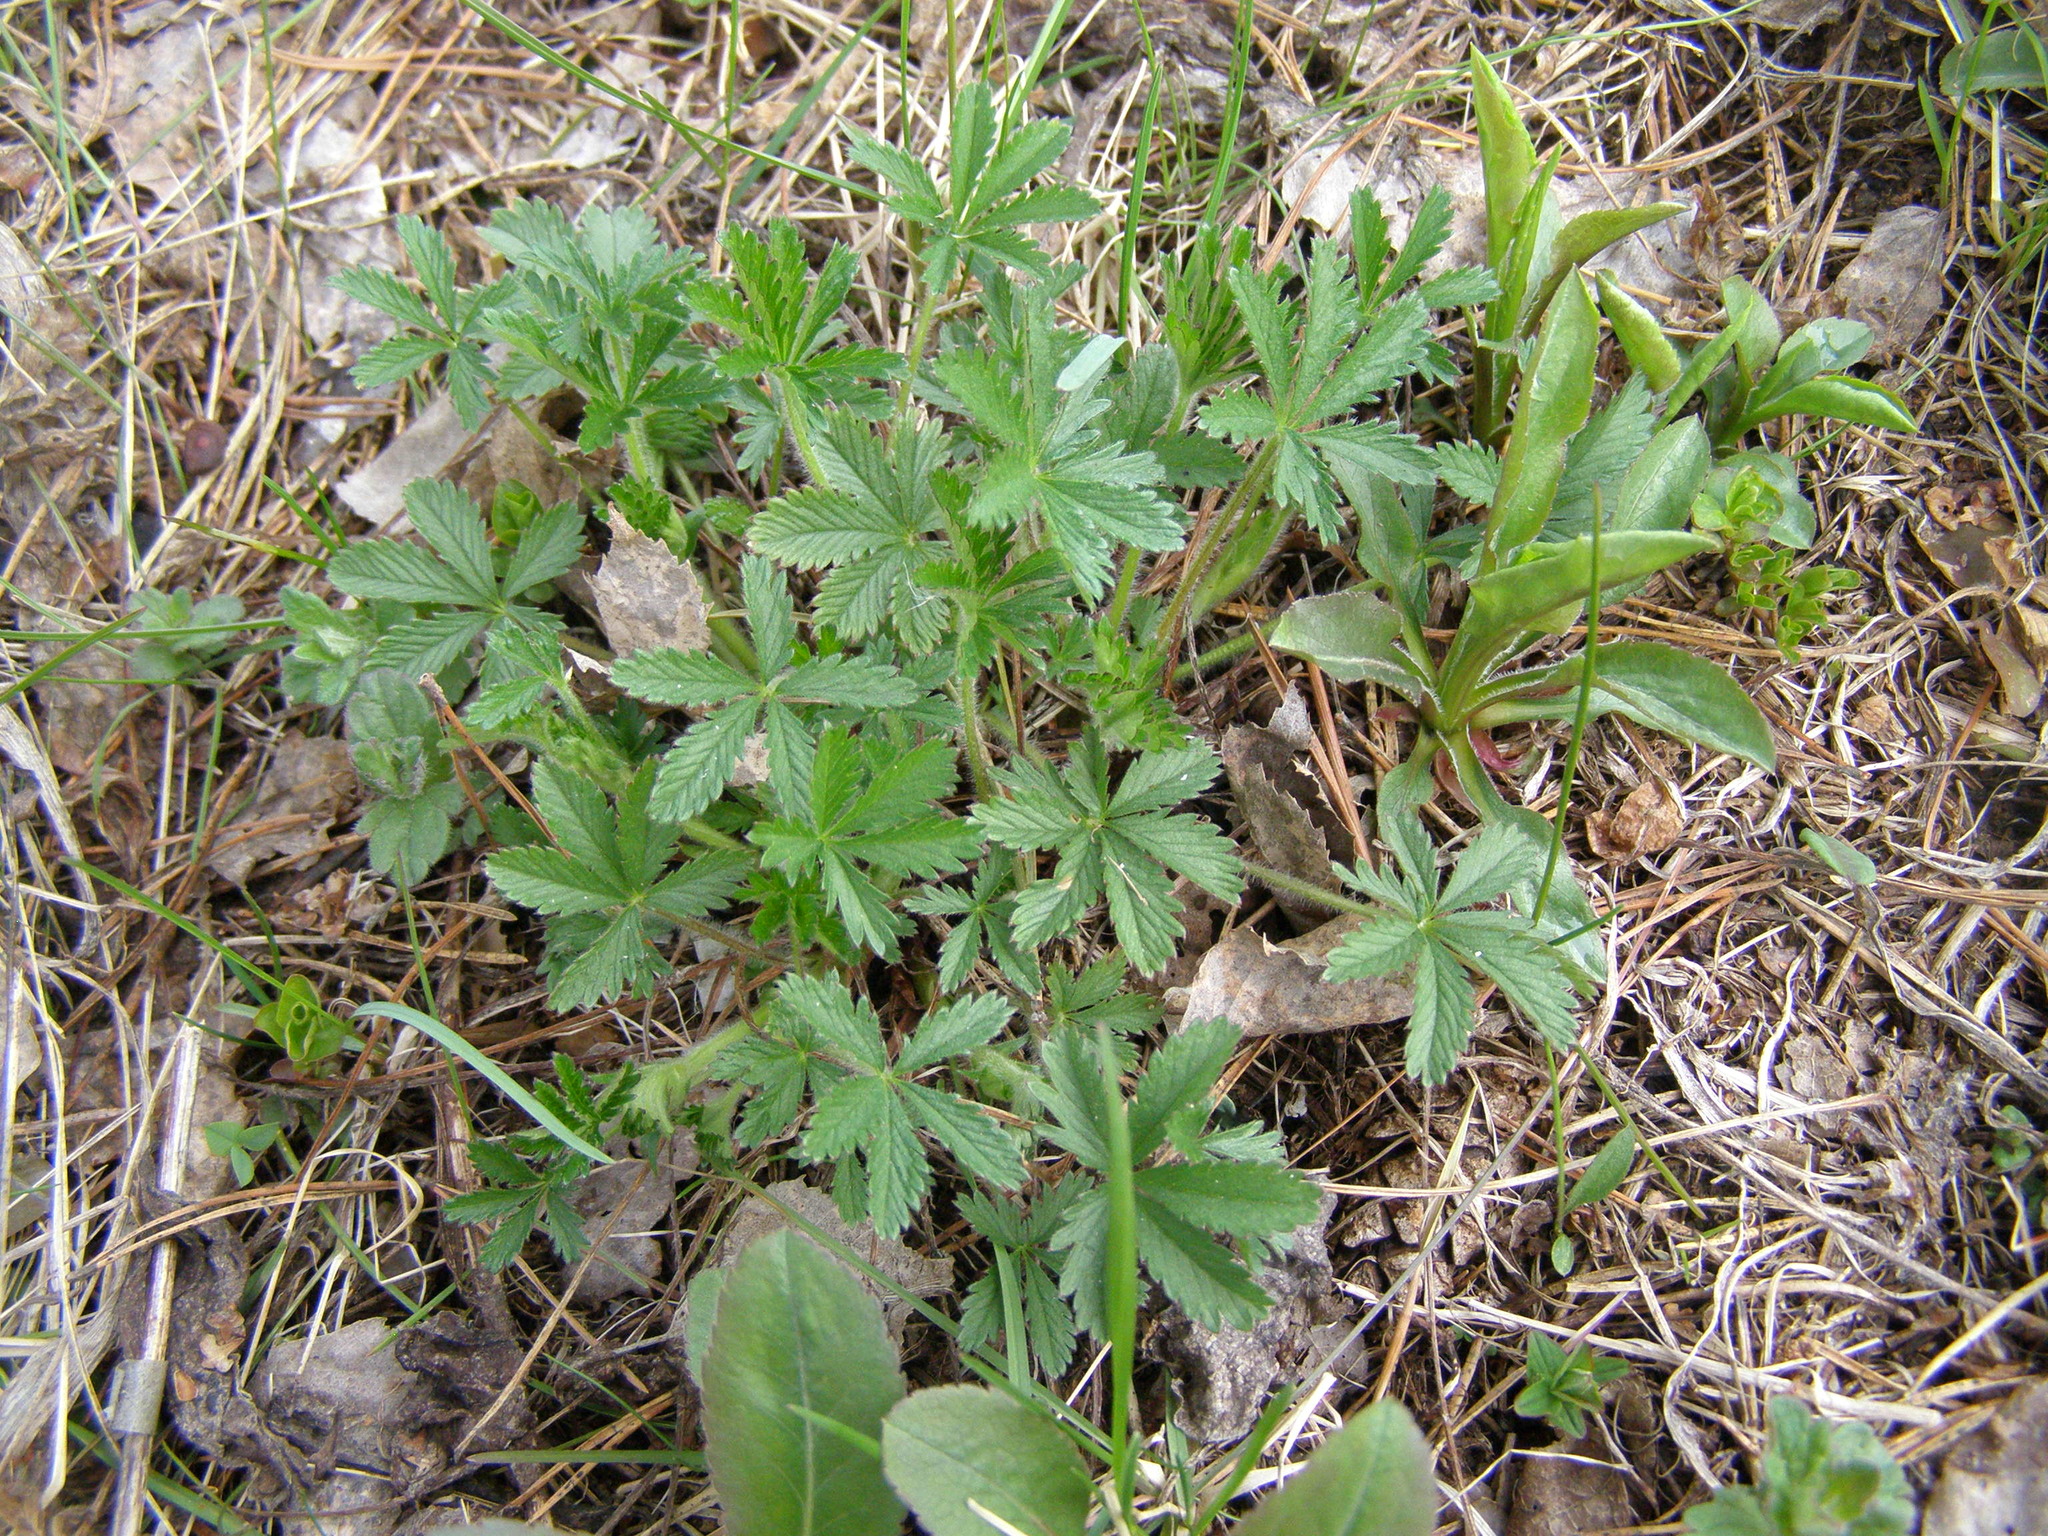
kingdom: Plantae
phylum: Tracheophyta
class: Magnoliopsida
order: Rosales
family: Rosaceae
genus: Potentilla
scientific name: Potentilla thuringiaca
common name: European cinquefoil
